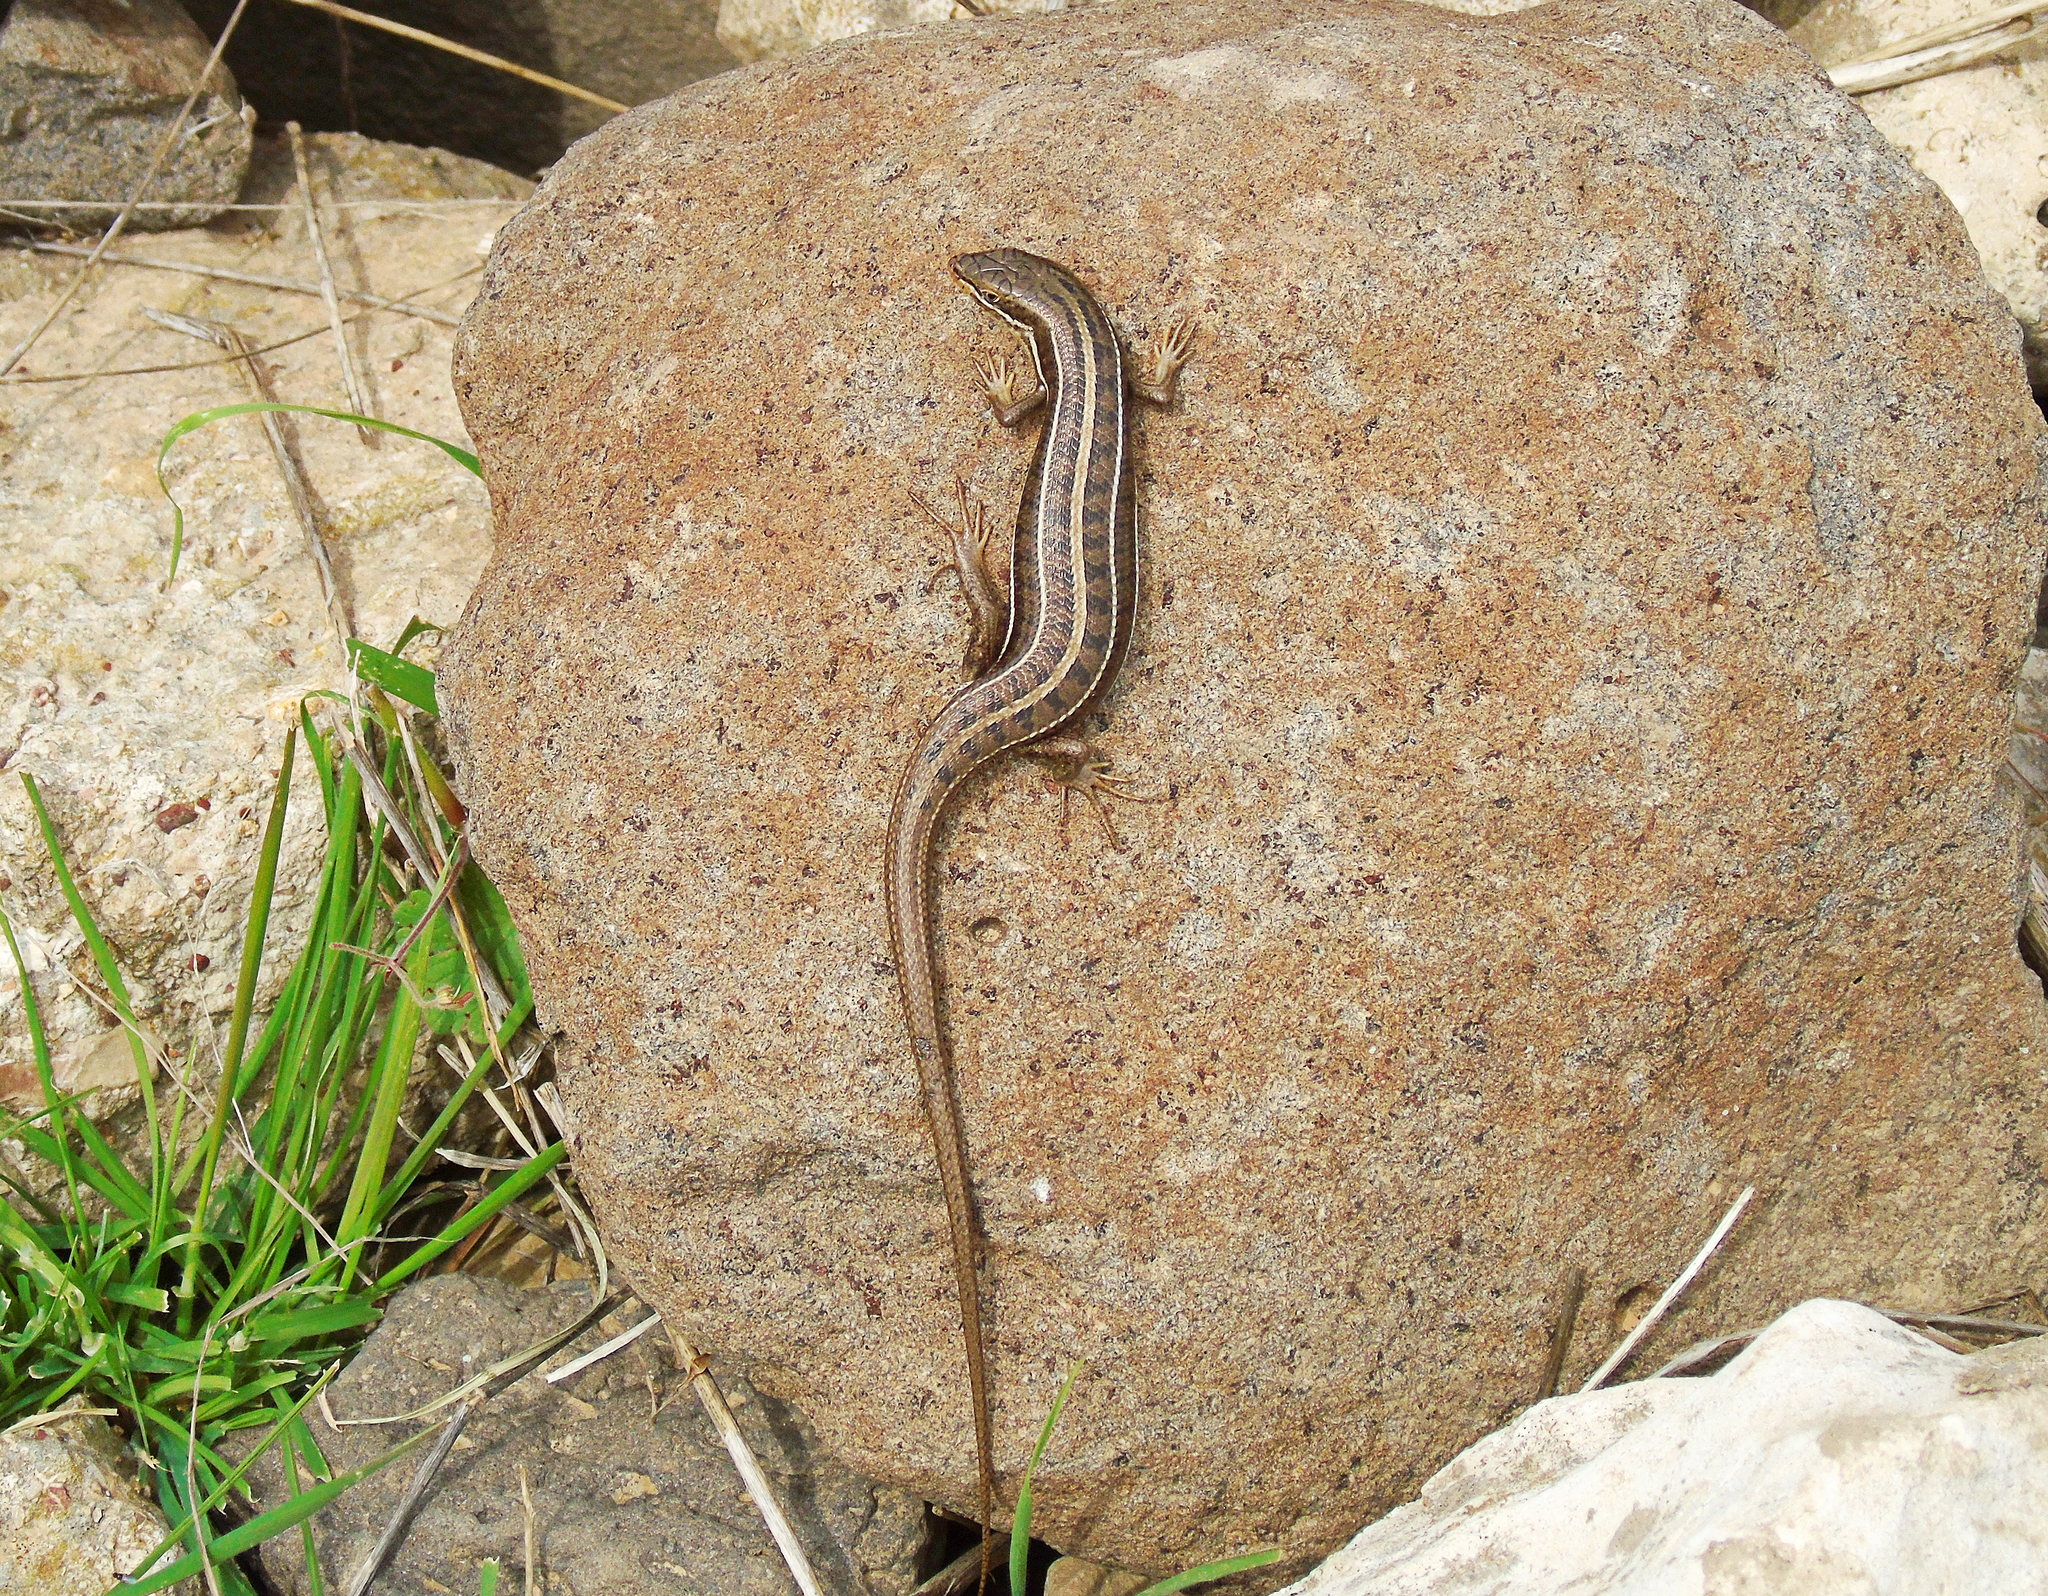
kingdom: Animalia
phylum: Chordata
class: Squamata
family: Scincidae
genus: Heremites
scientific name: Heremites vittatus
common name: Bridled mabuya
